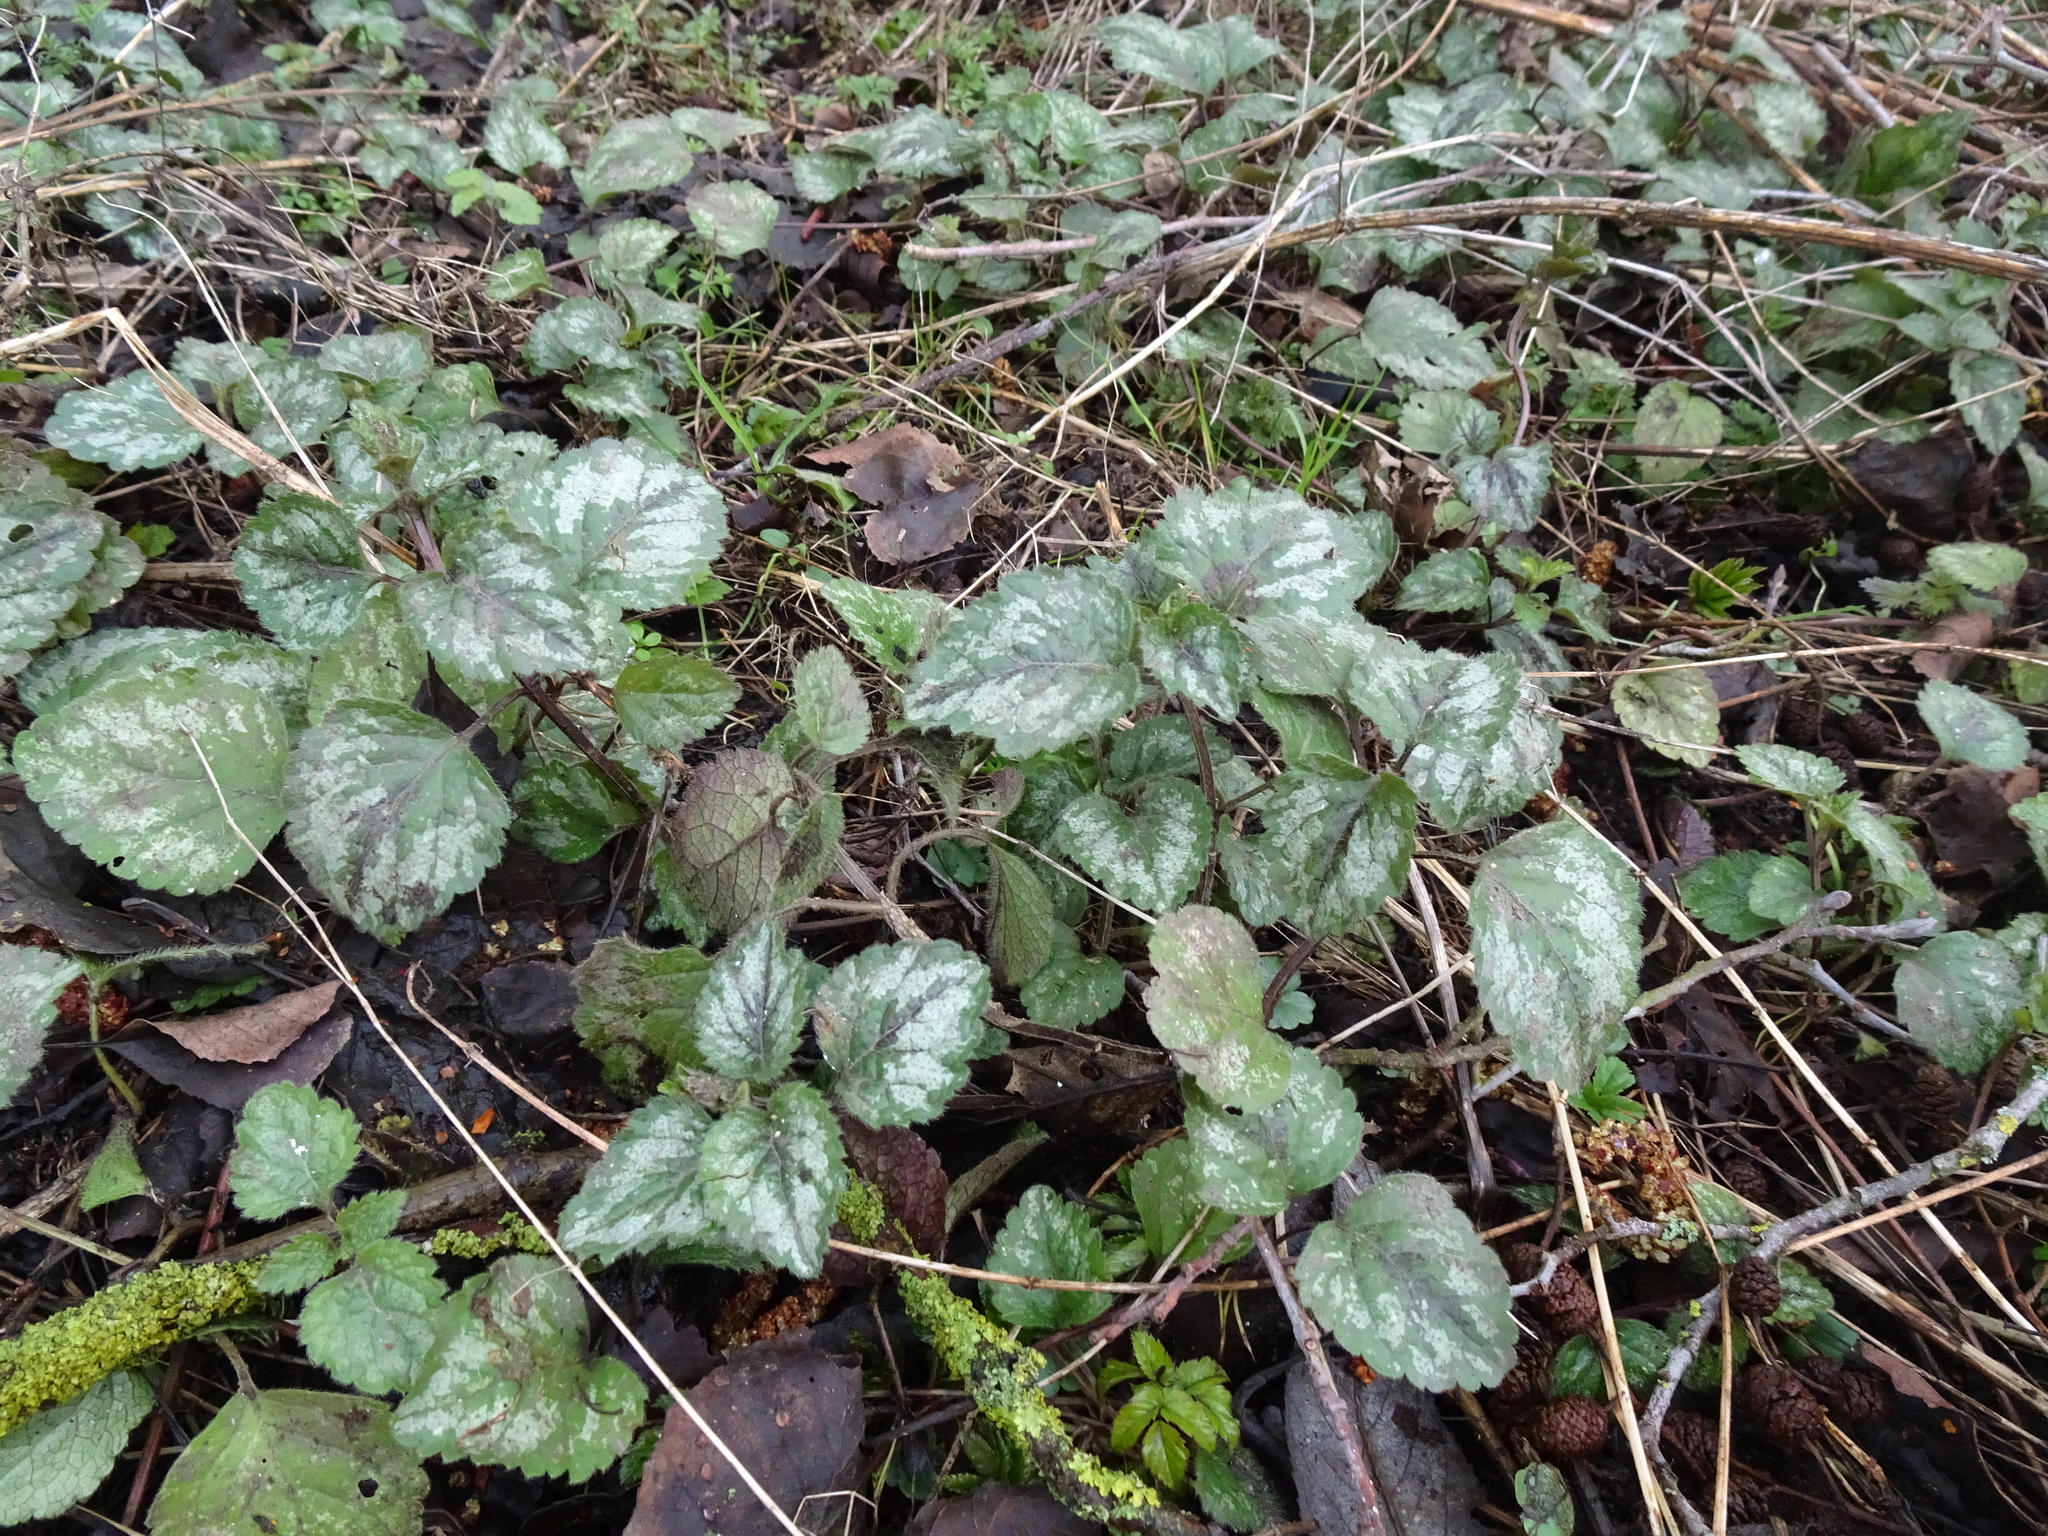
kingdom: Plantae
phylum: Tracheophyta
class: Magnoliopsida
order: Lamiales
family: Lamiaceae
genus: Lamium
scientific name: Lamium galeobdolon
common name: Yellow archangel
